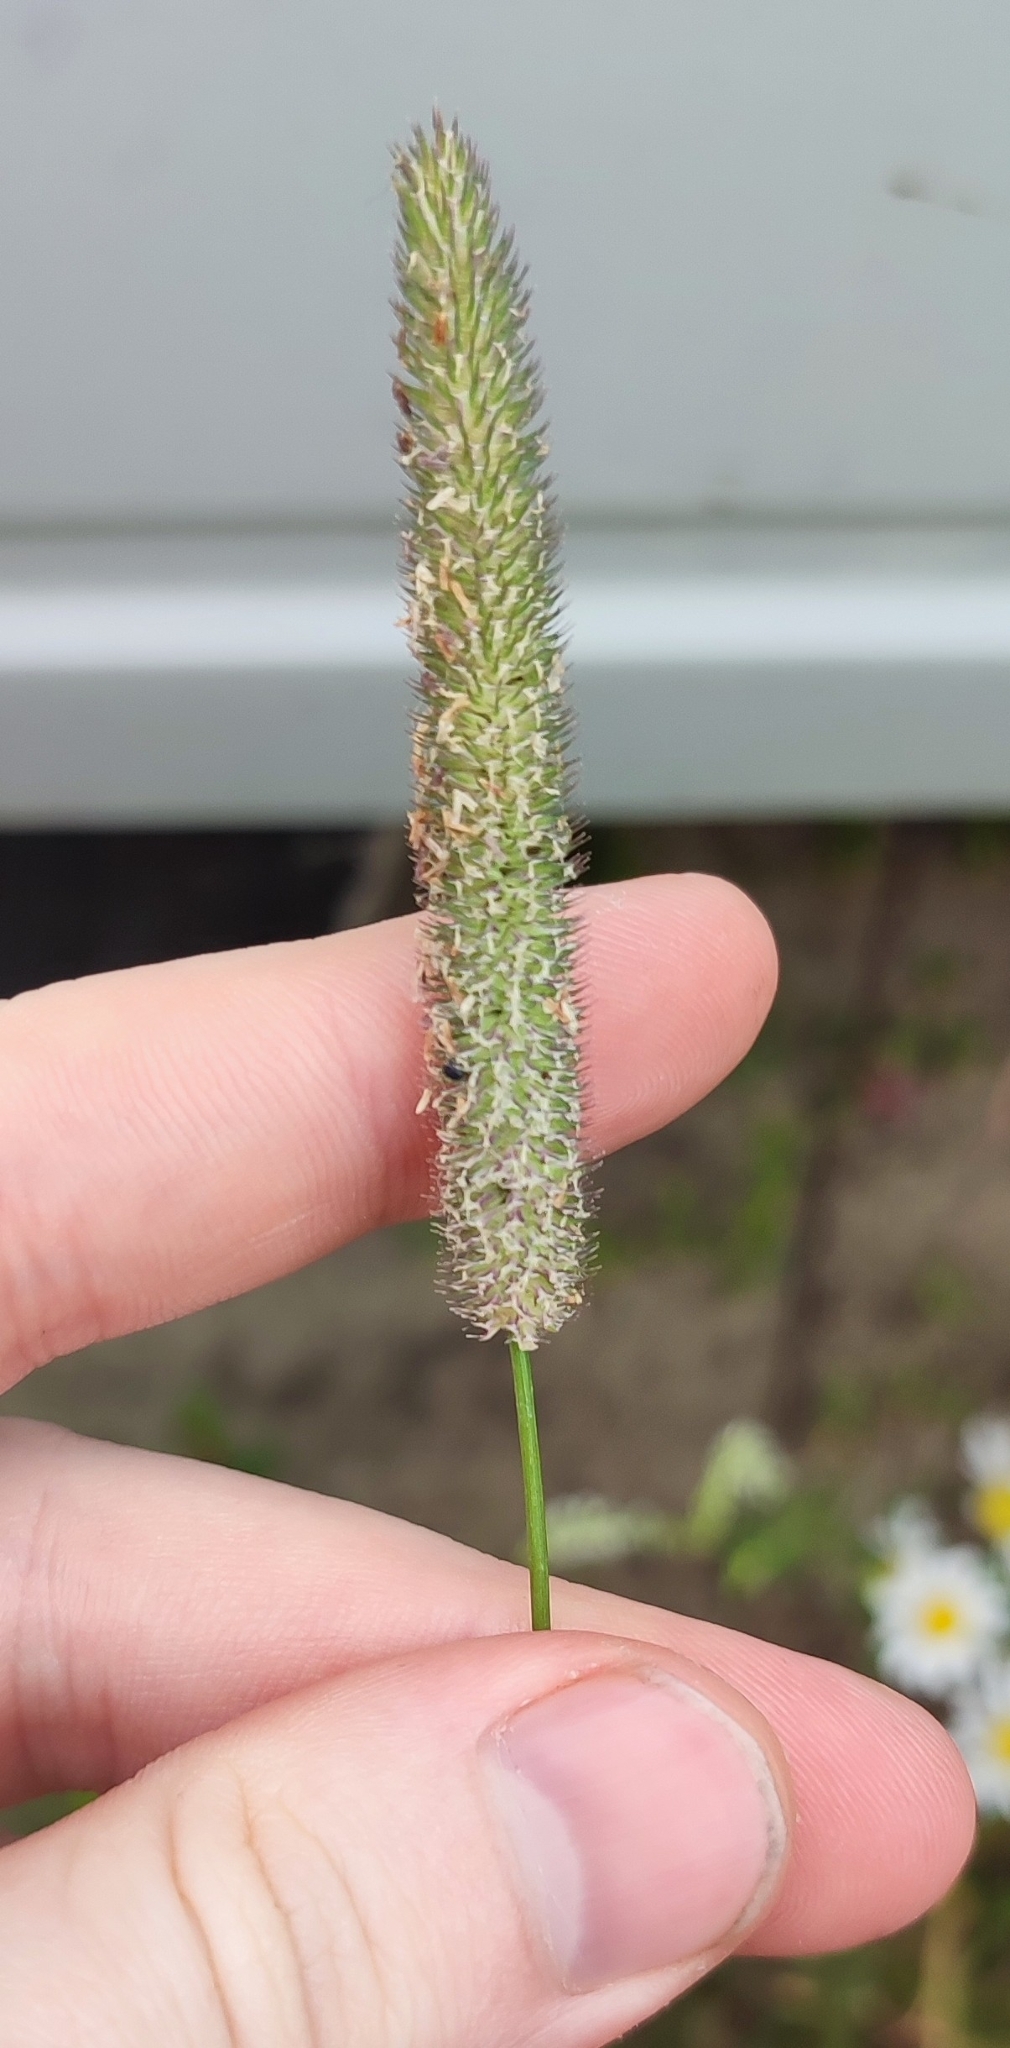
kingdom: Plantae
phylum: Tracheophyta
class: Liliopsida
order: Poales
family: Poaceae
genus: Phleum
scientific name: Phleum pratense
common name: Timothy grass
